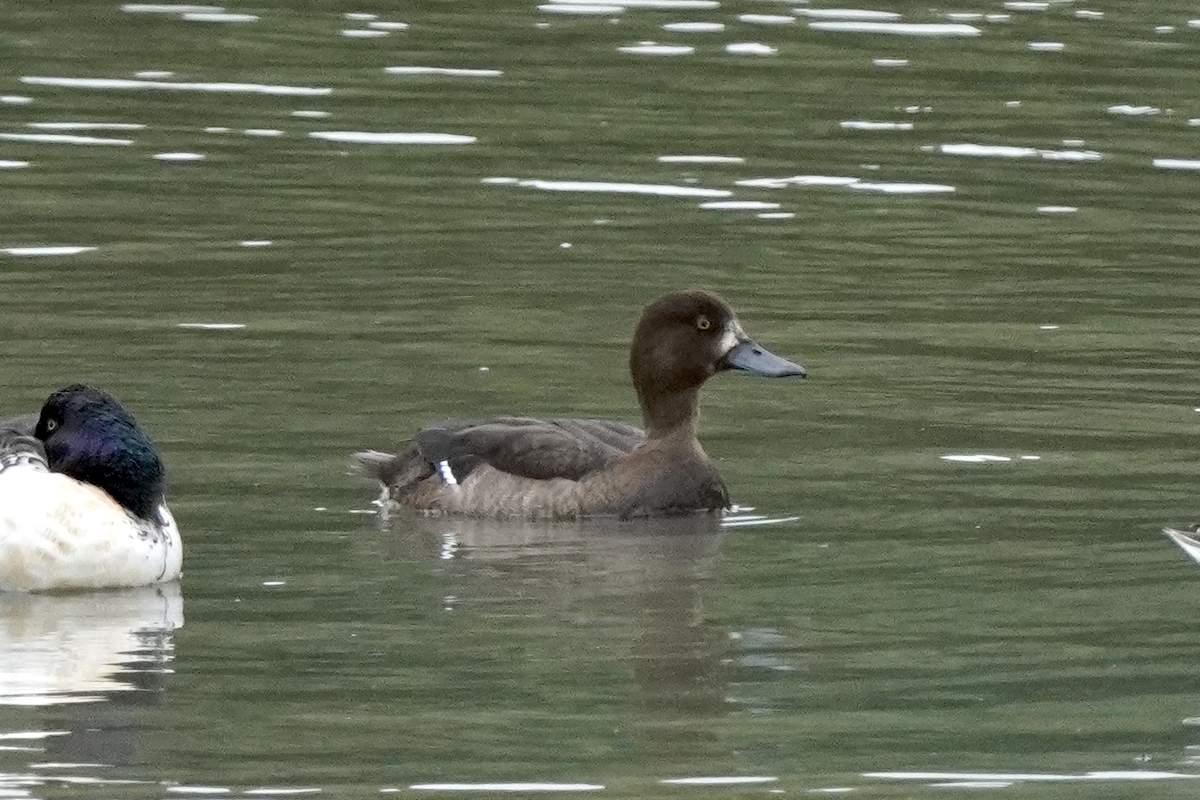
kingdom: Animalia
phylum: Chordata
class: Aves
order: Anseriformes
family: Anatidae
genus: Aythya
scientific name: Aythya fuligula
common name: Tufted duck
